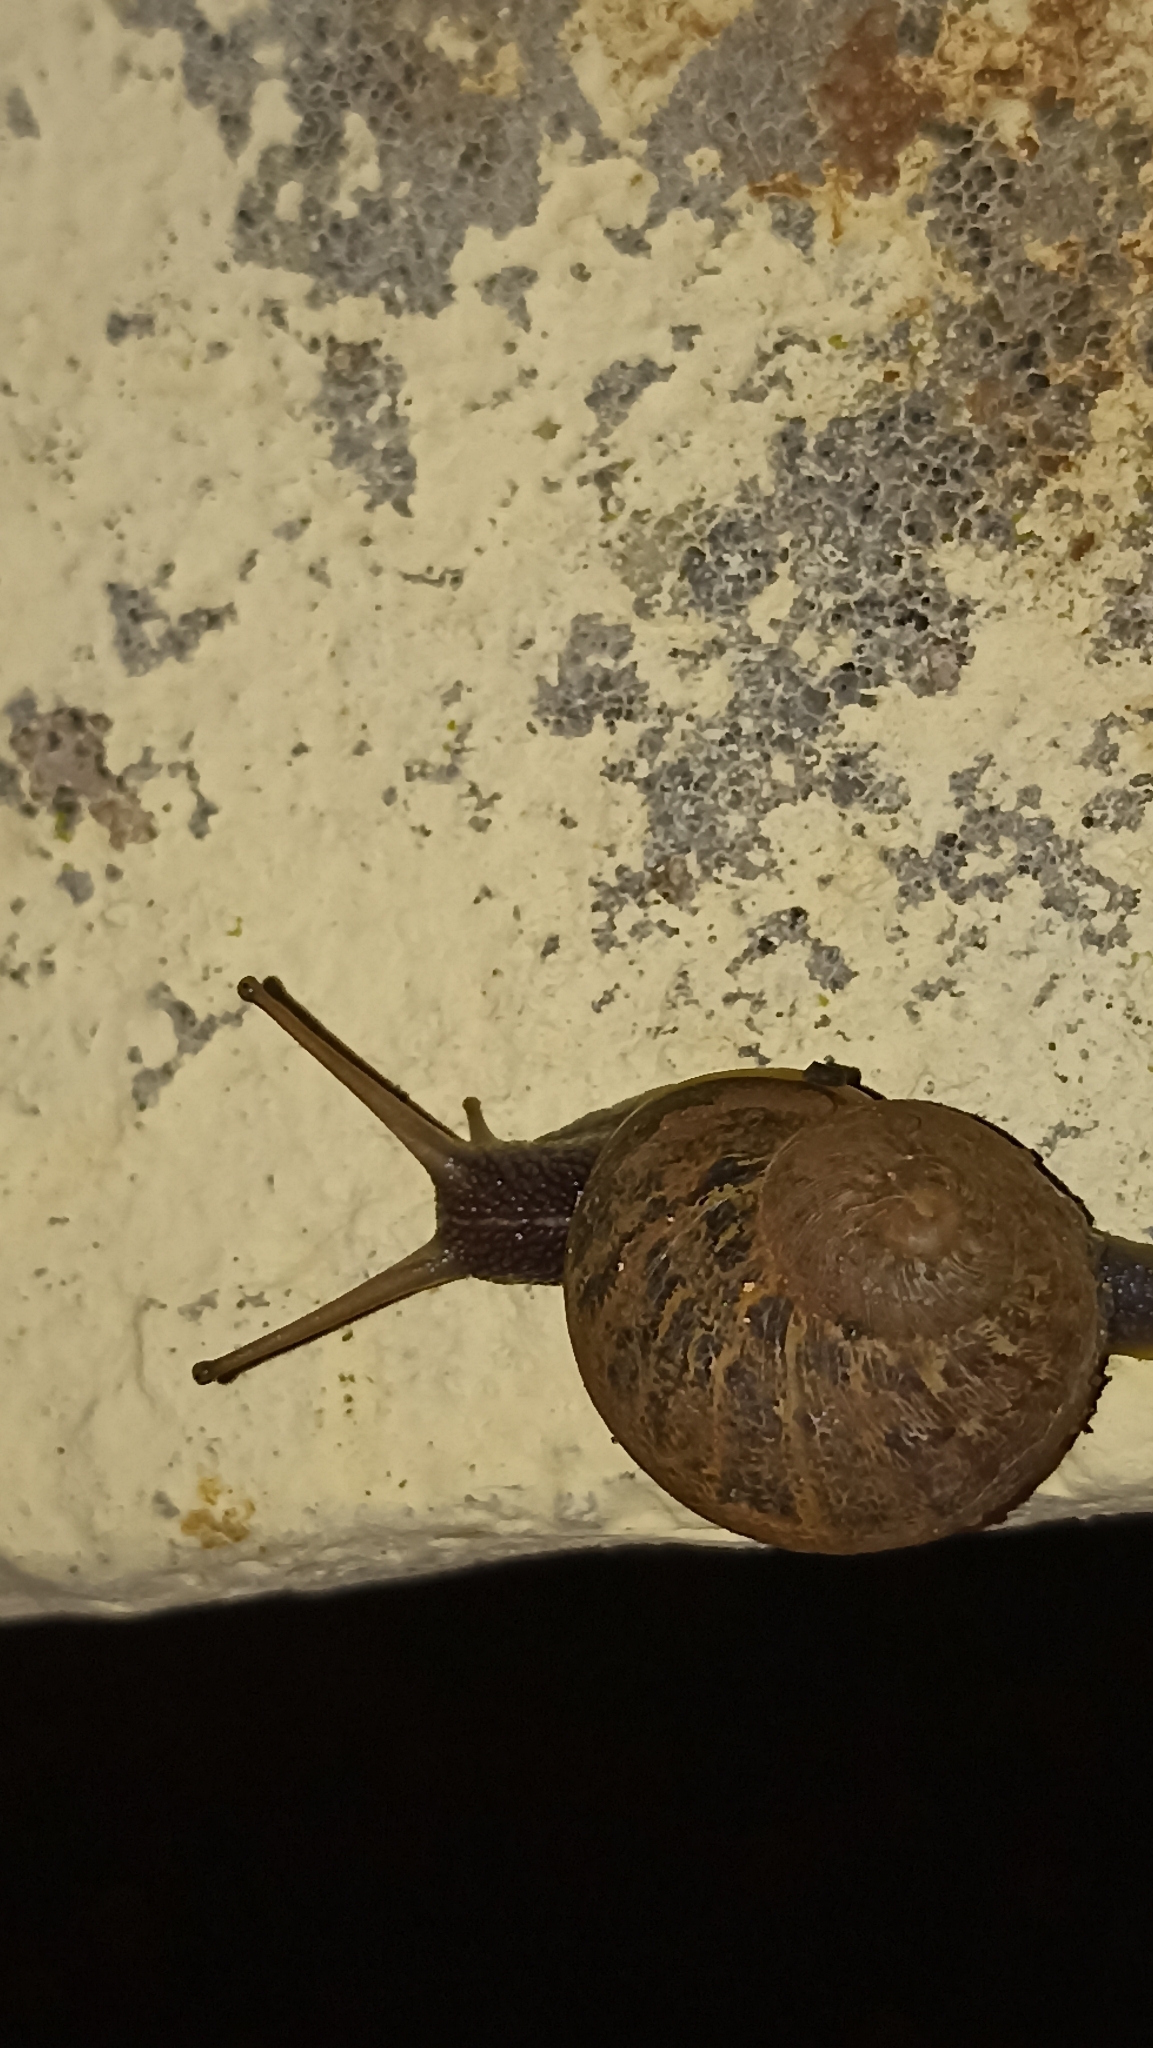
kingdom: Animalia
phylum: Mollusca
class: Gastropoda
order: Stylommatophora
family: Helicidae
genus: Cornu
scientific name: Cornu aspersum
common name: Brown garden snail
